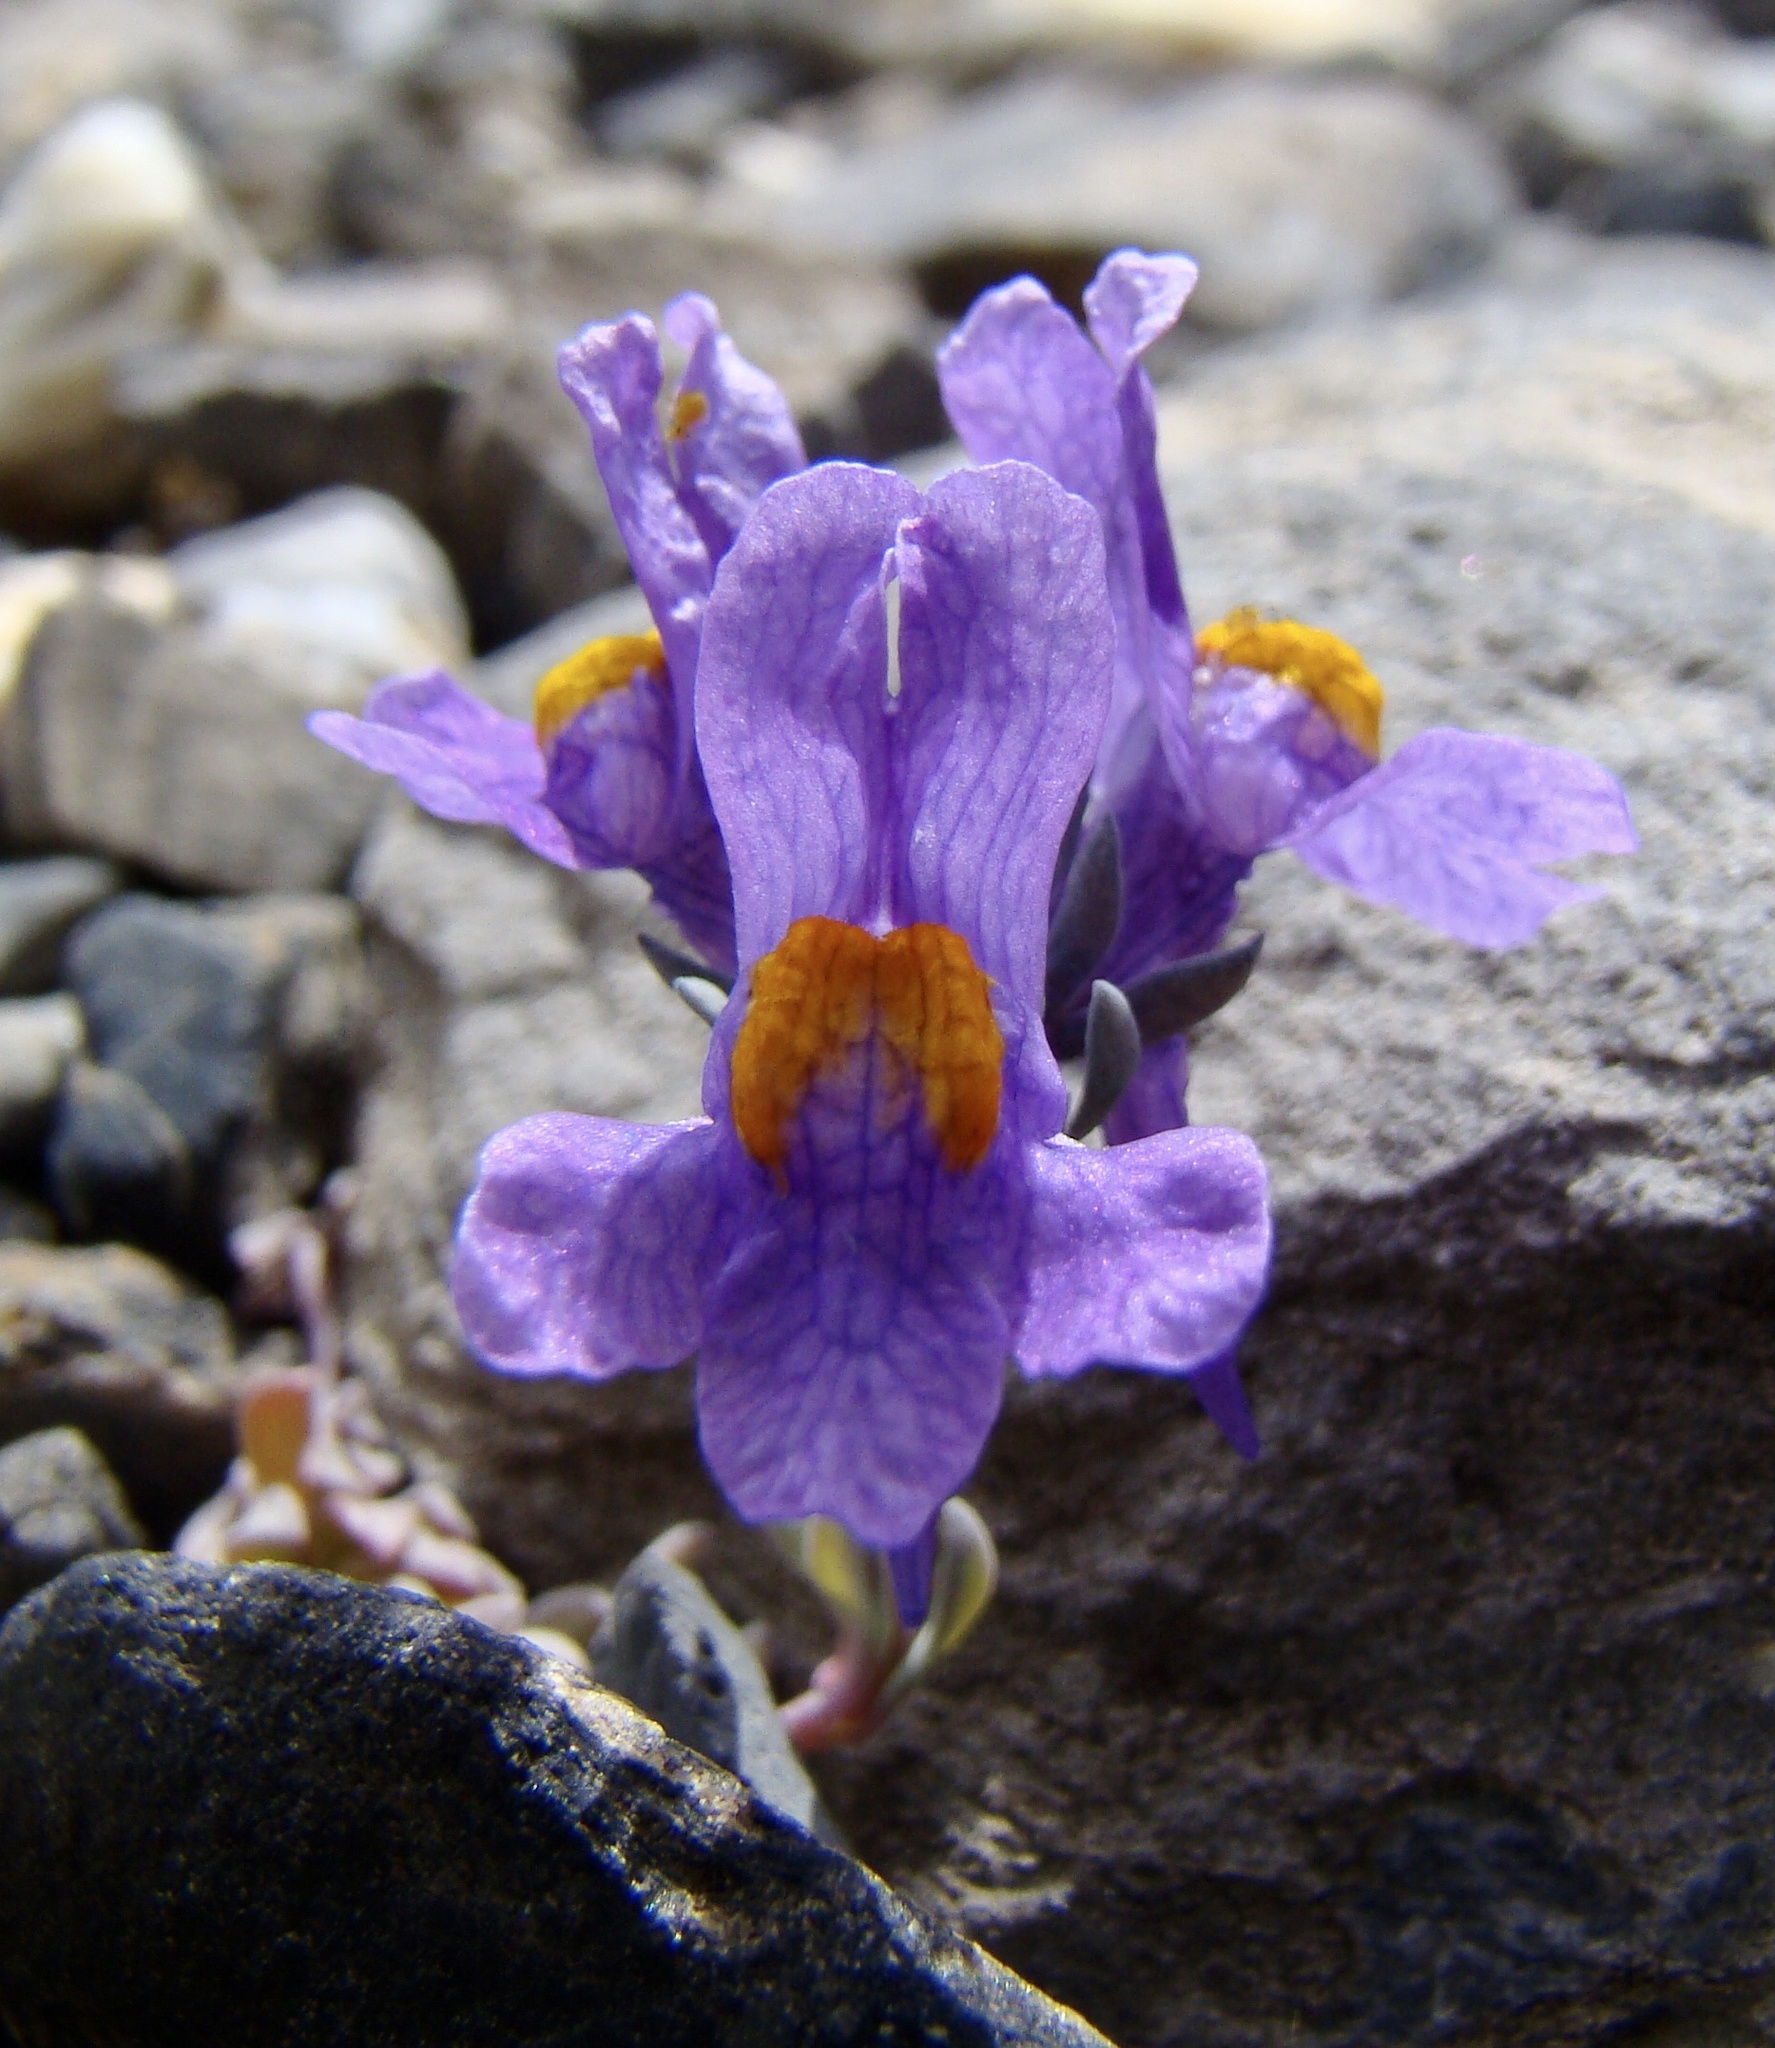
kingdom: Plantae
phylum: Tracheophyta
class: Magnoliopsida
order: Lamiales
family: Plantaginaceae
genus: Linaria
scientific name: Linaria alpina
